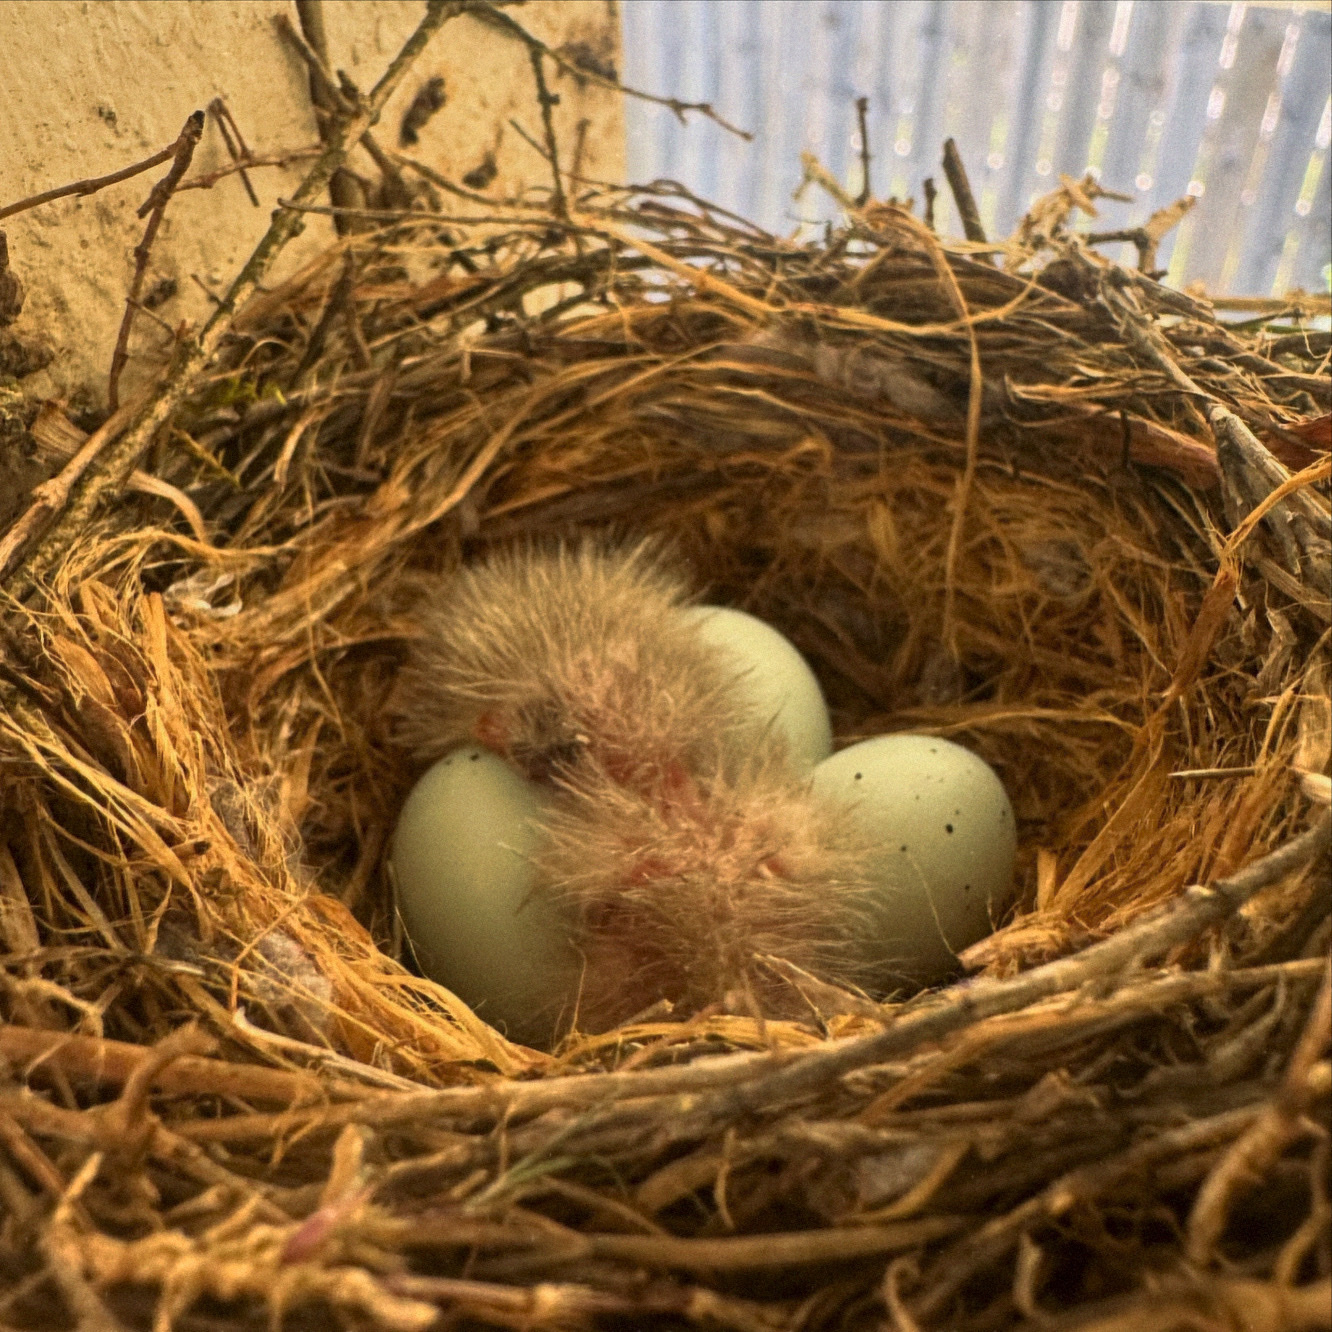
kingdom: Animalia
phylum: Chordata
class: Aves
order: Passeriformes
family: Fringillidae
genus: Haemorhous
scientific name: Haemorhous mexicanus
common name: House finch
